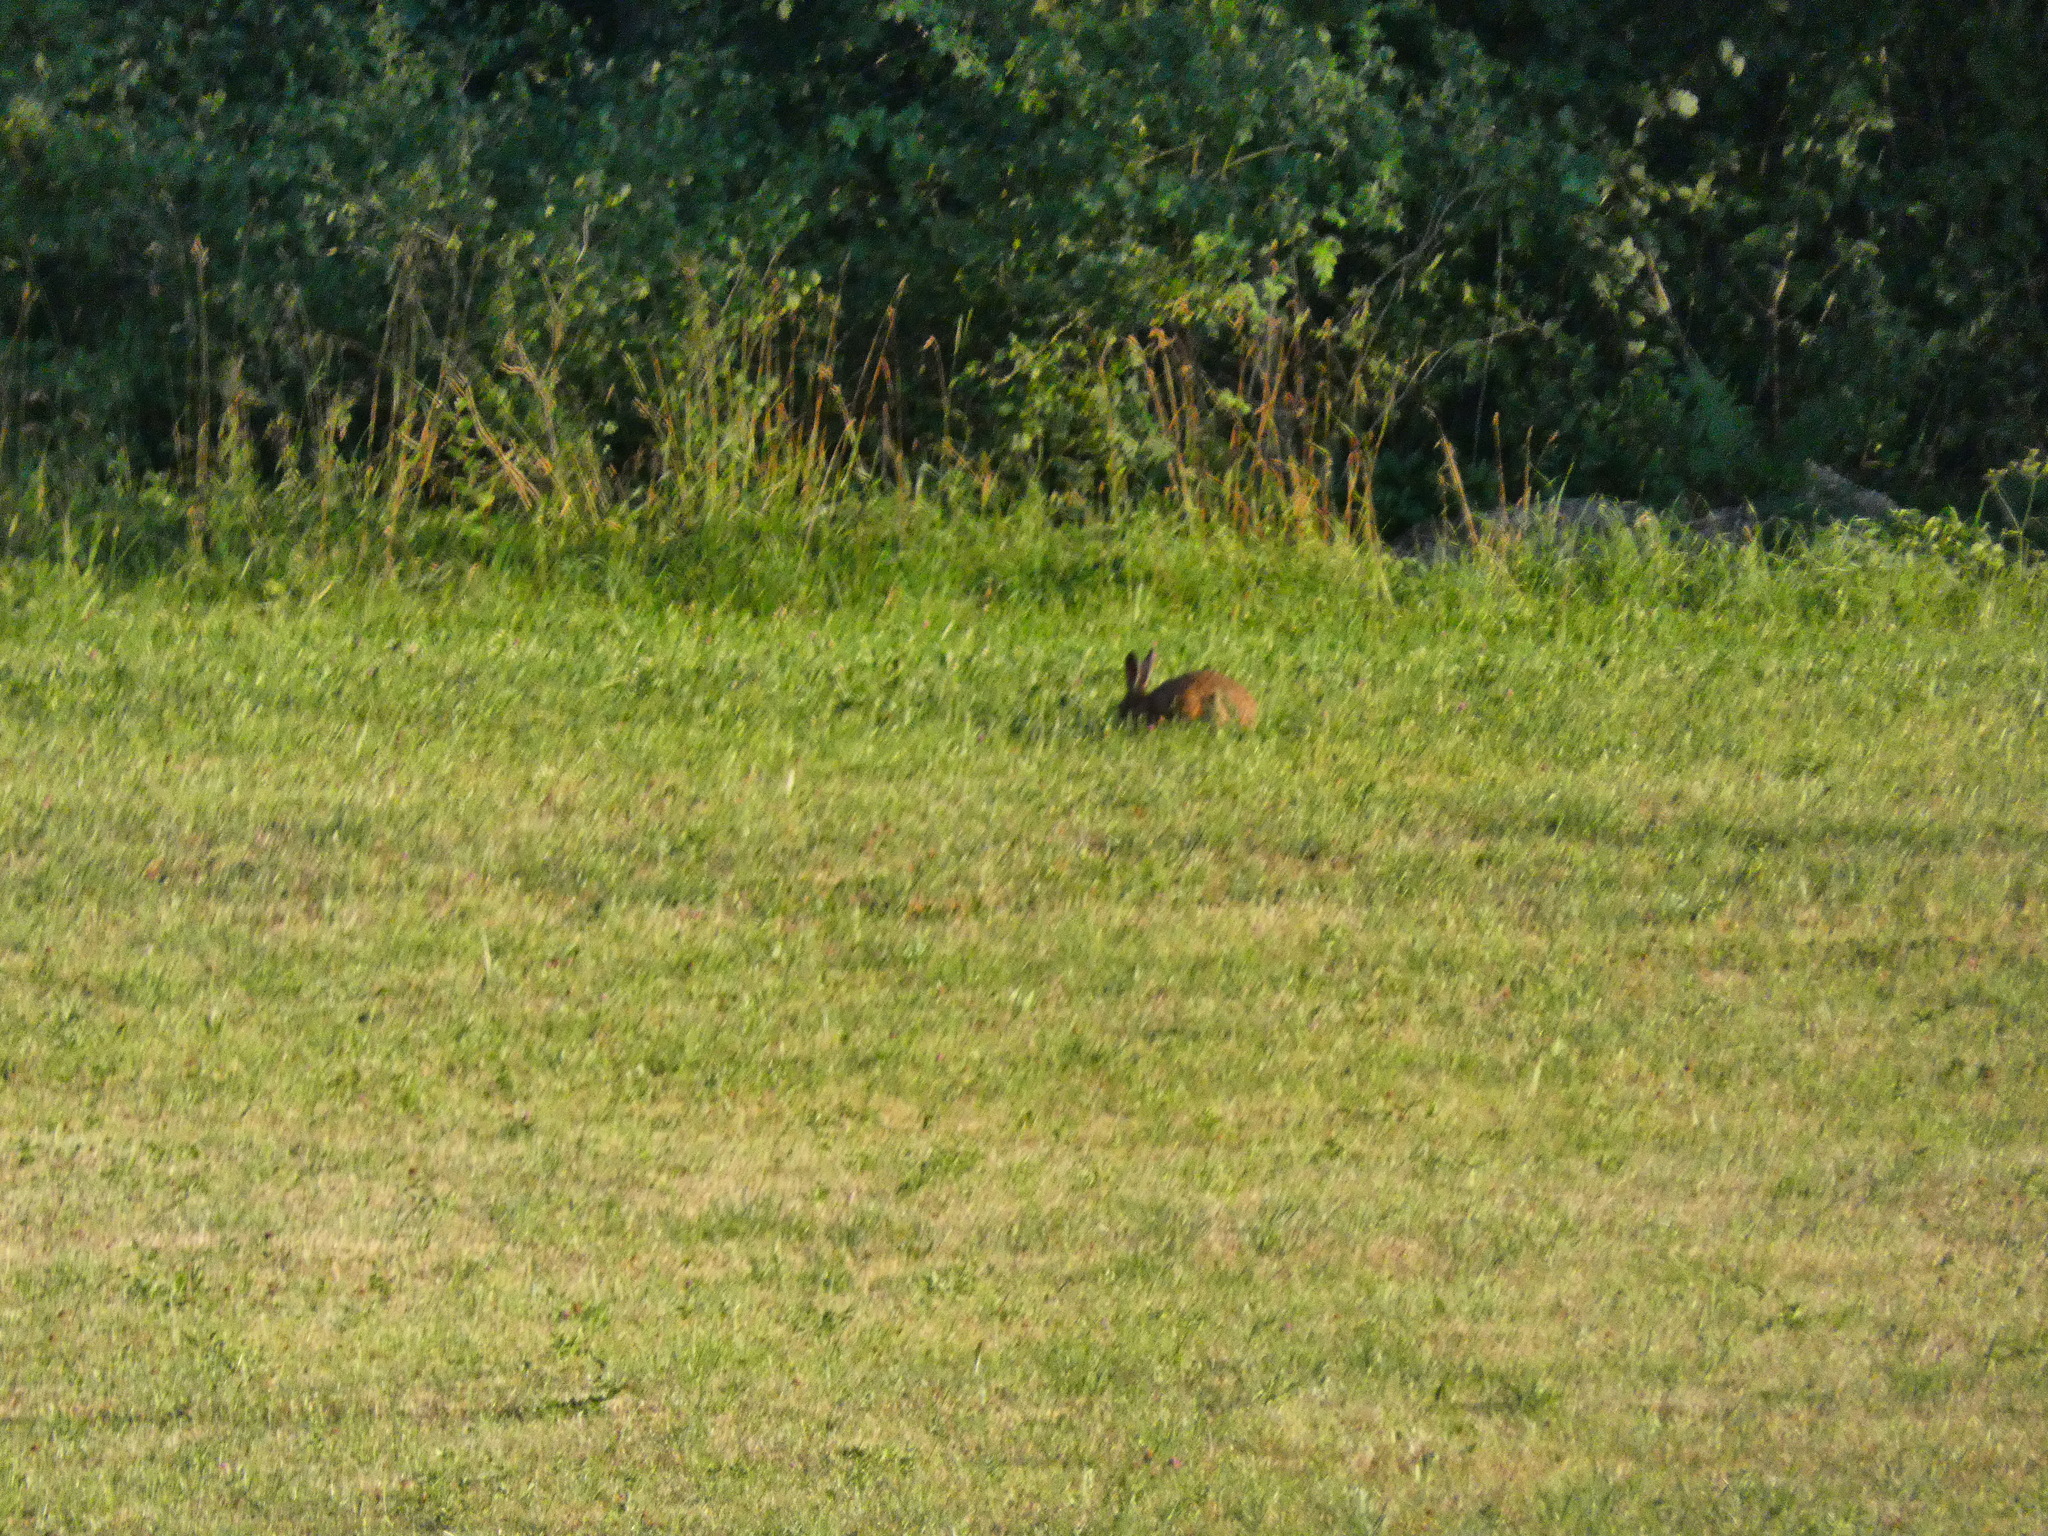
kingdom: Animalia
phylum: Chordata
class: Mammalia
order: Lagomorpha
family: Leporidae
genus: Lepus
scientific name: Lepus europaeus
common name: European hare
